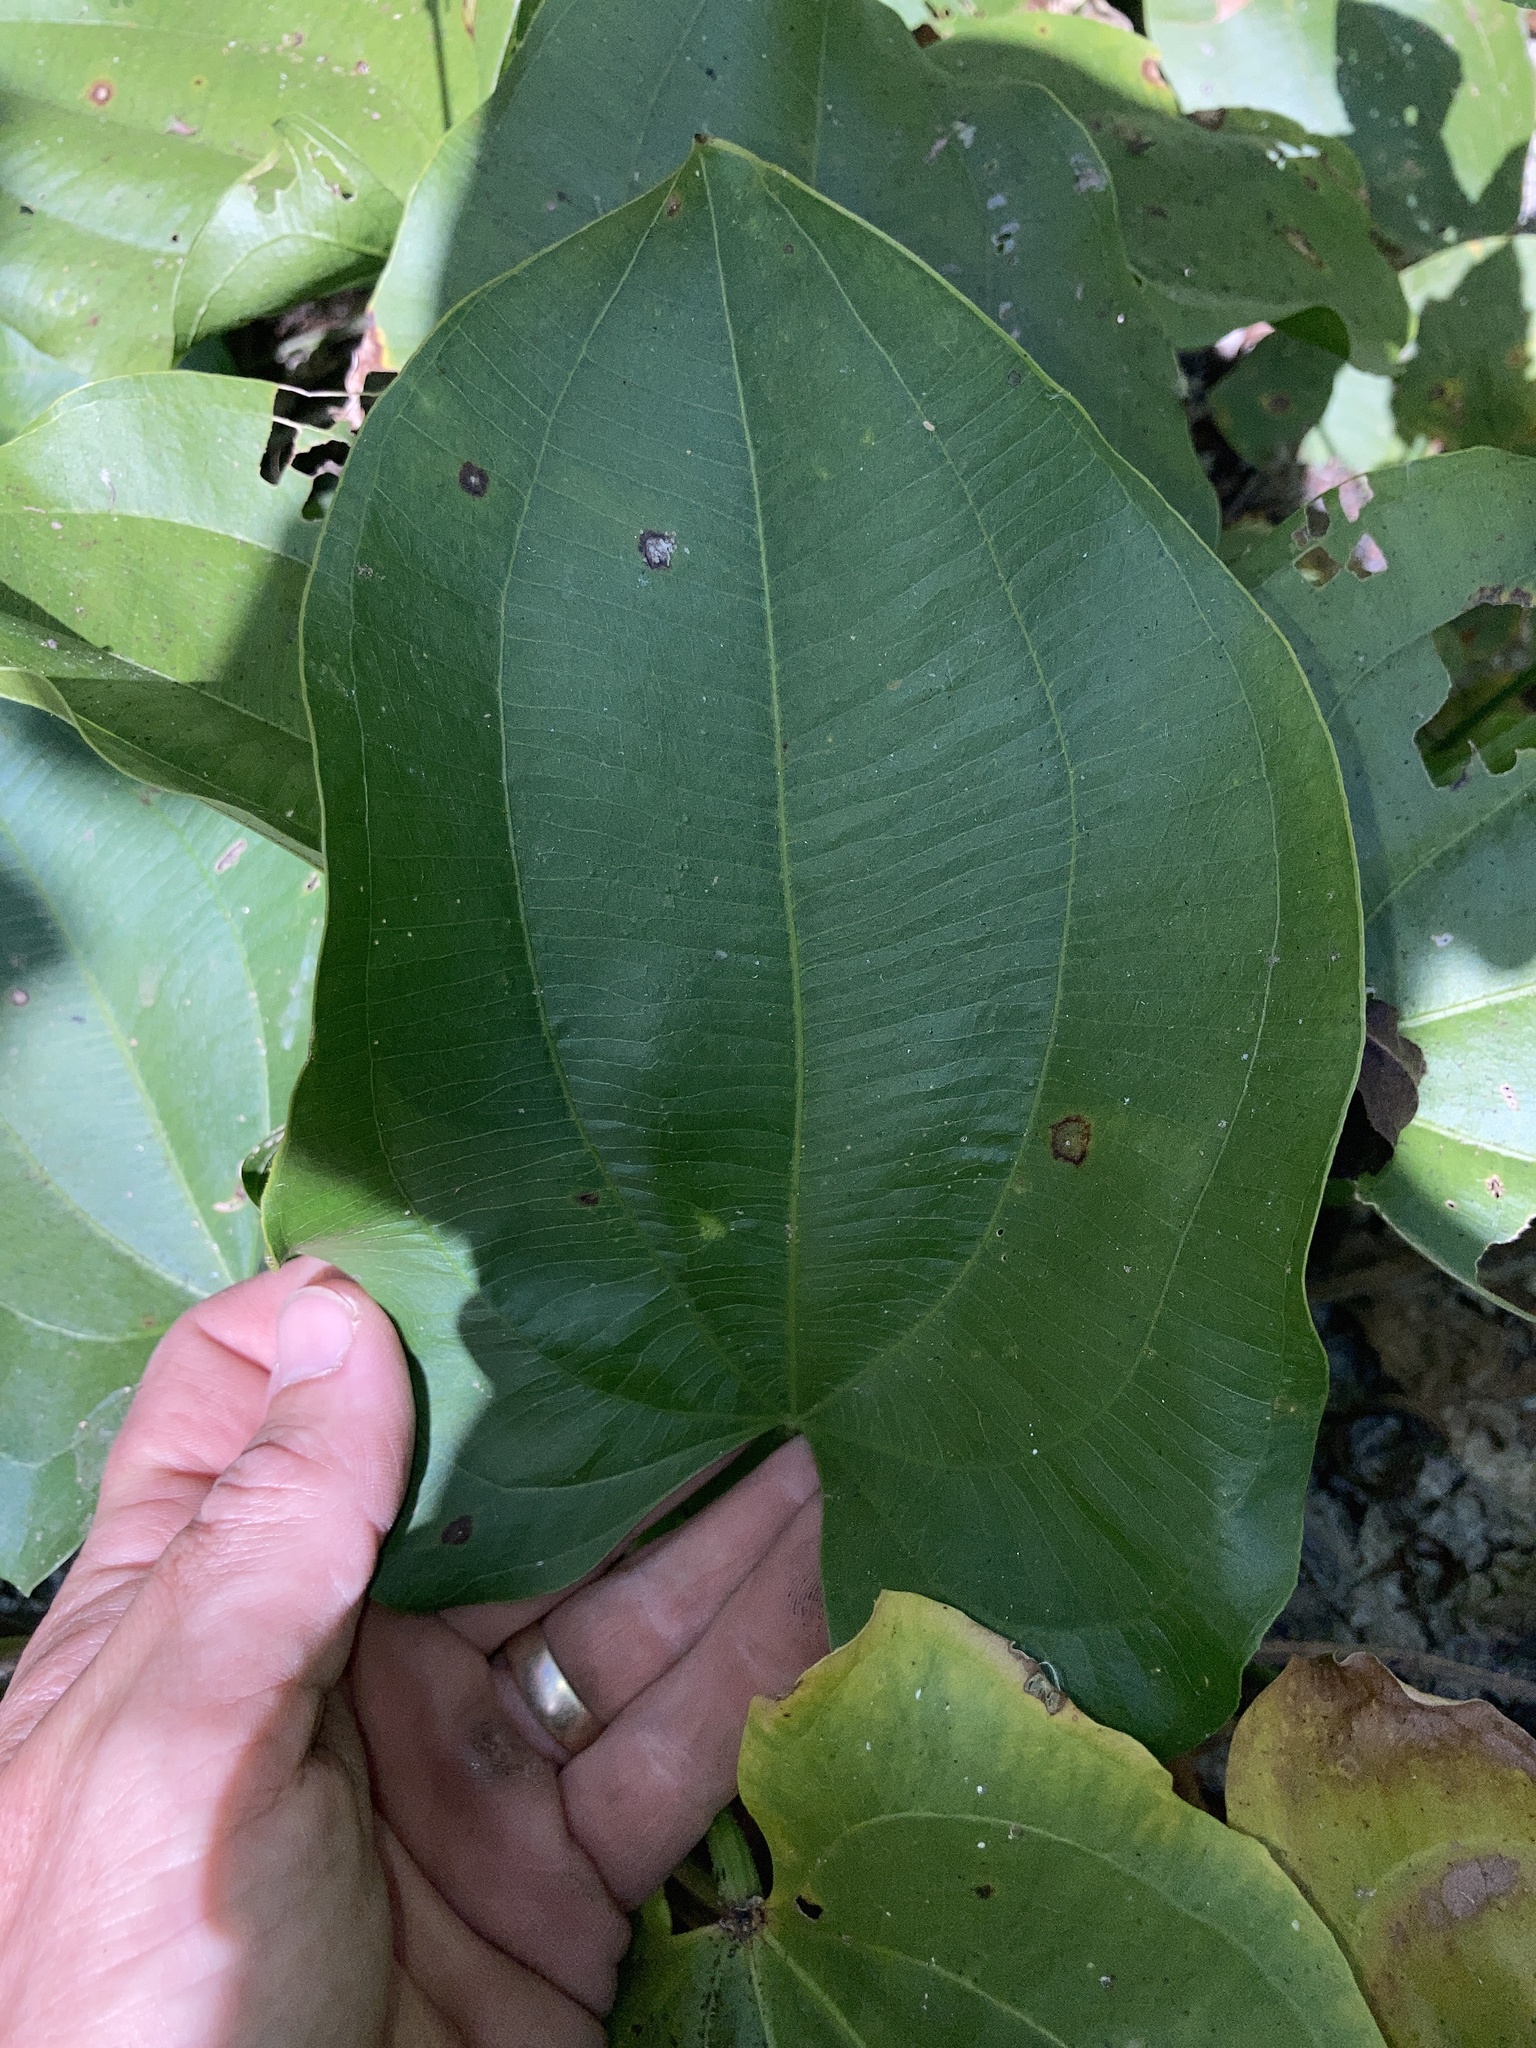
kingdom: Plantae
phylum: Tracheophyta
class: Liliopsida
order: Alismatales
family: Alismataceae
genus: Aquarius
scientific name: Aquarius cordifolius
